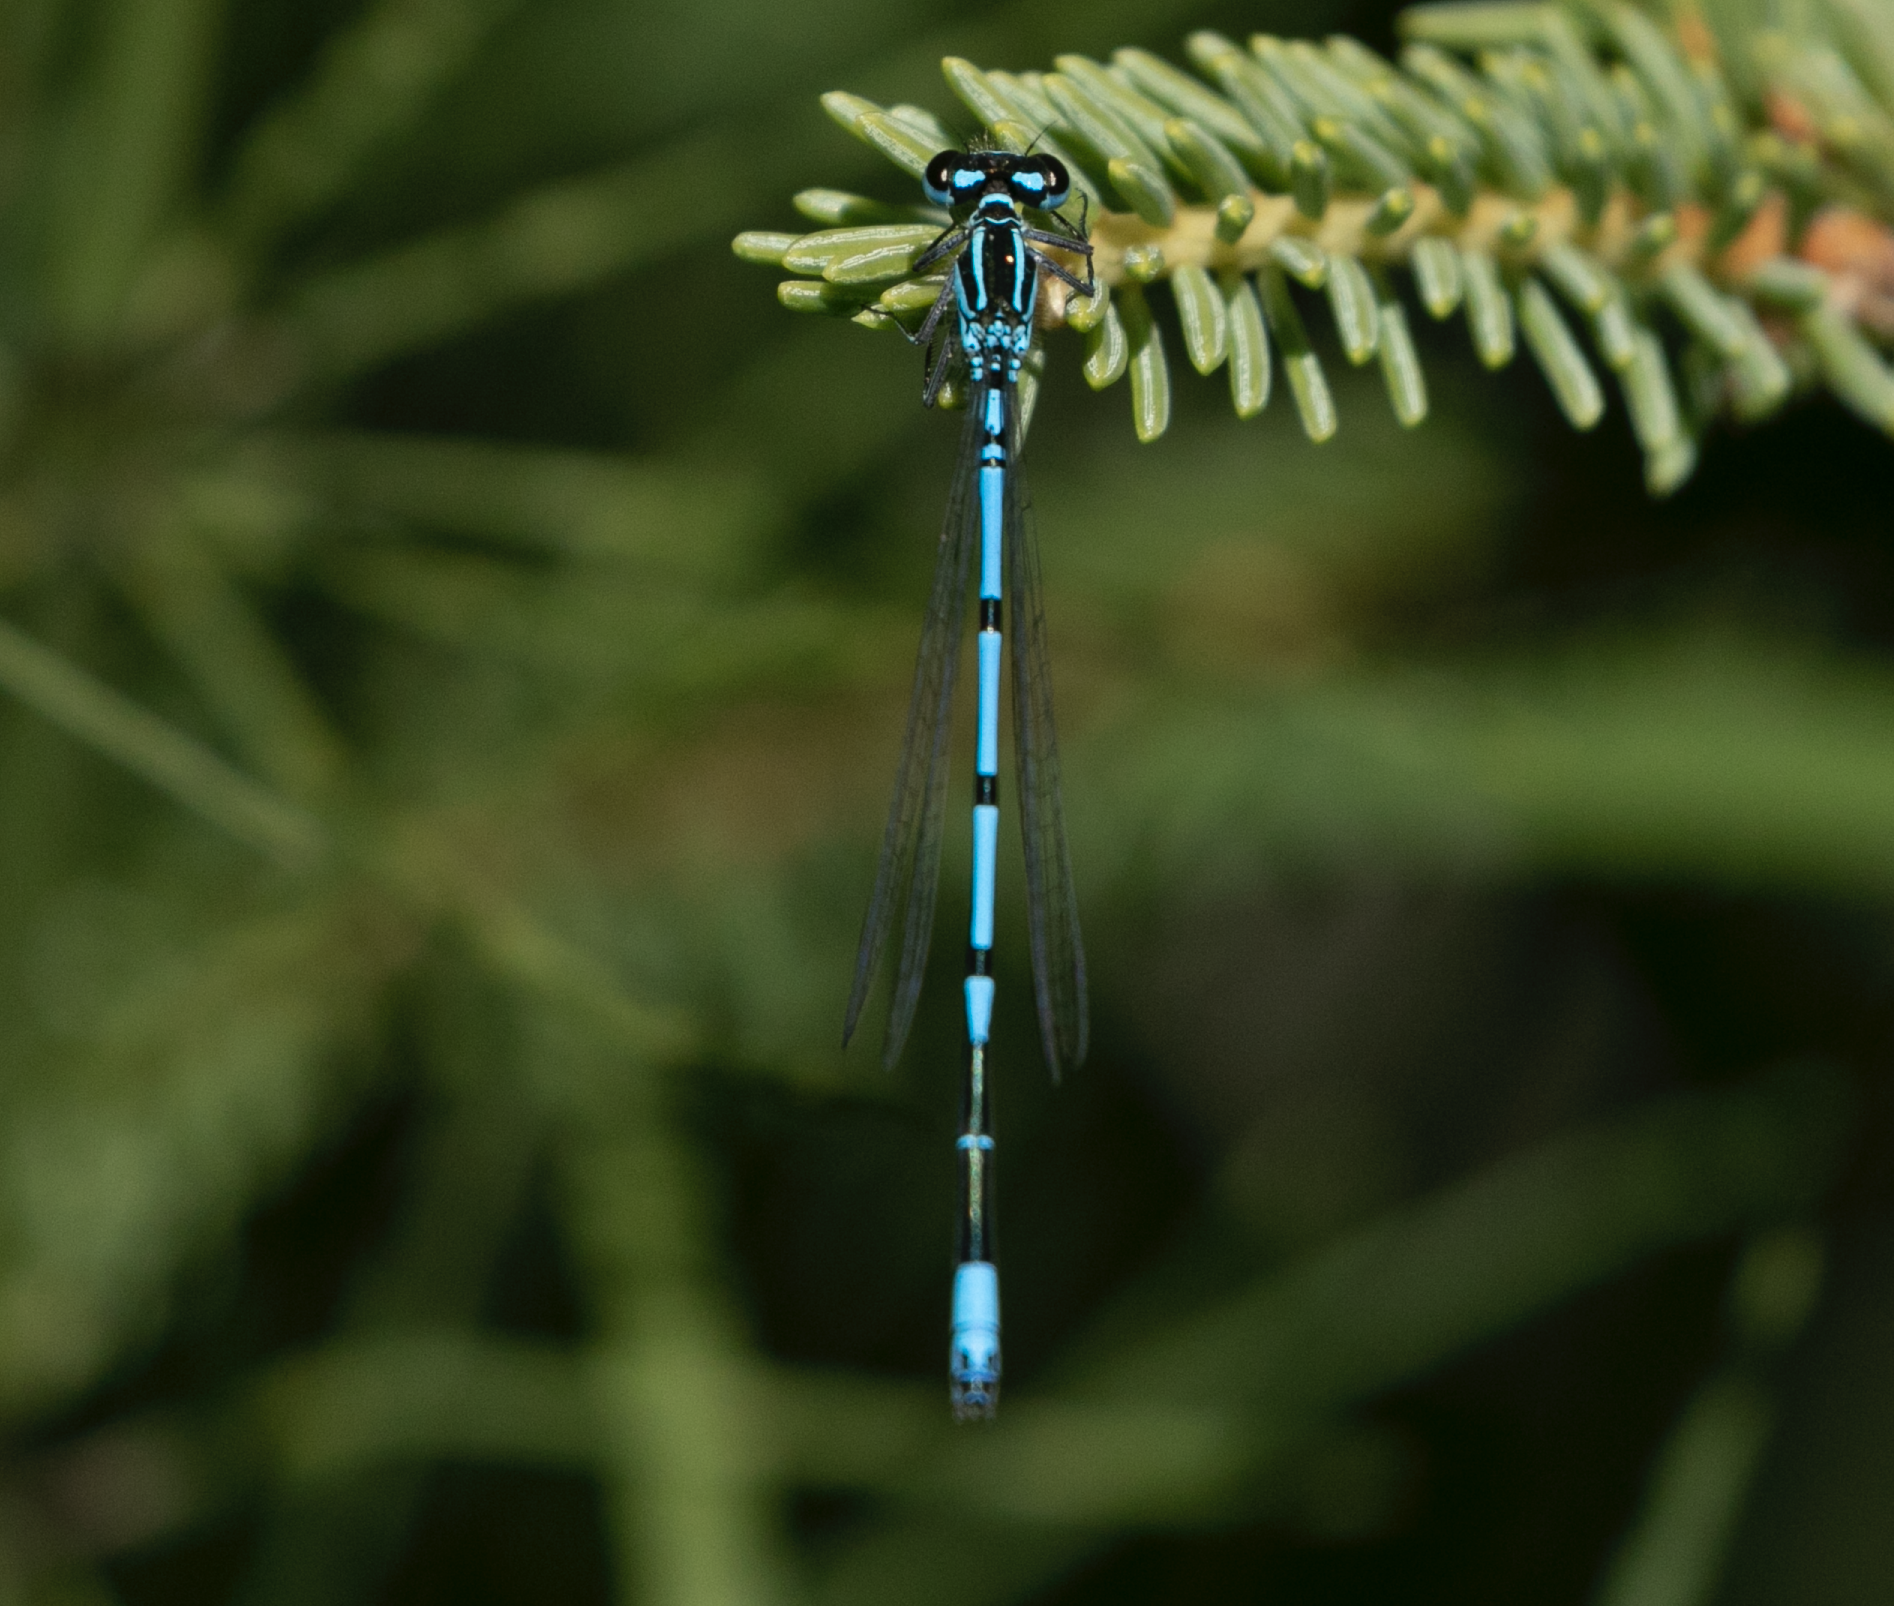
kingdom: Animalia
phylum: Arthropoda
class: Insecta
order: Odonata
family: Coenagrionidae
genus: Coenagrion
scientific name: Coenagrion puella
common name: Azure damselfly
